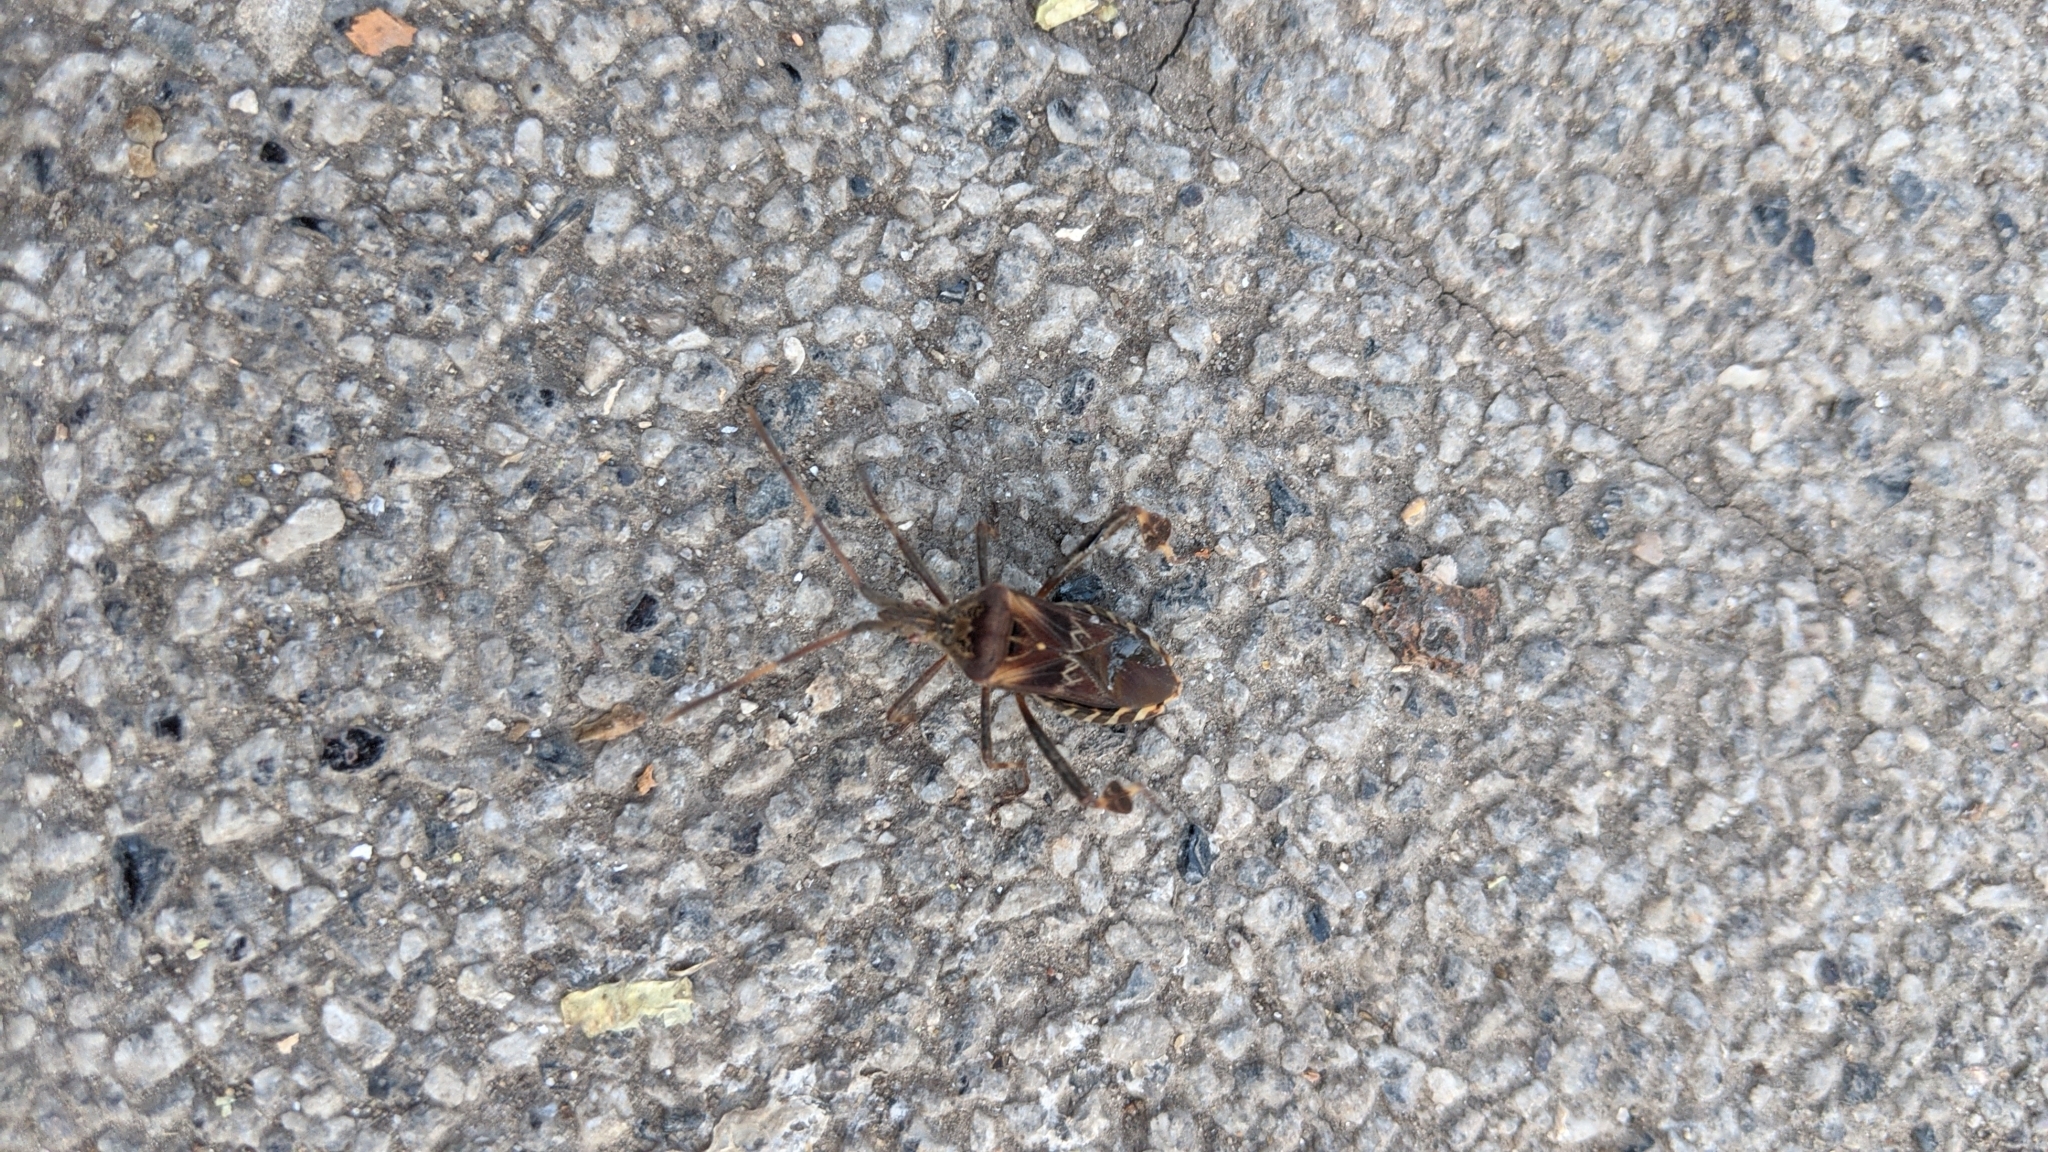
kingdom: Animalia
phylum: Arthropoda
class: Insecta
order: Hemiptera
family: Coreidae
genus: Leptoglossus
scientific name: Leptoglossus occidentalis
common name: Western conifer-seed bug
